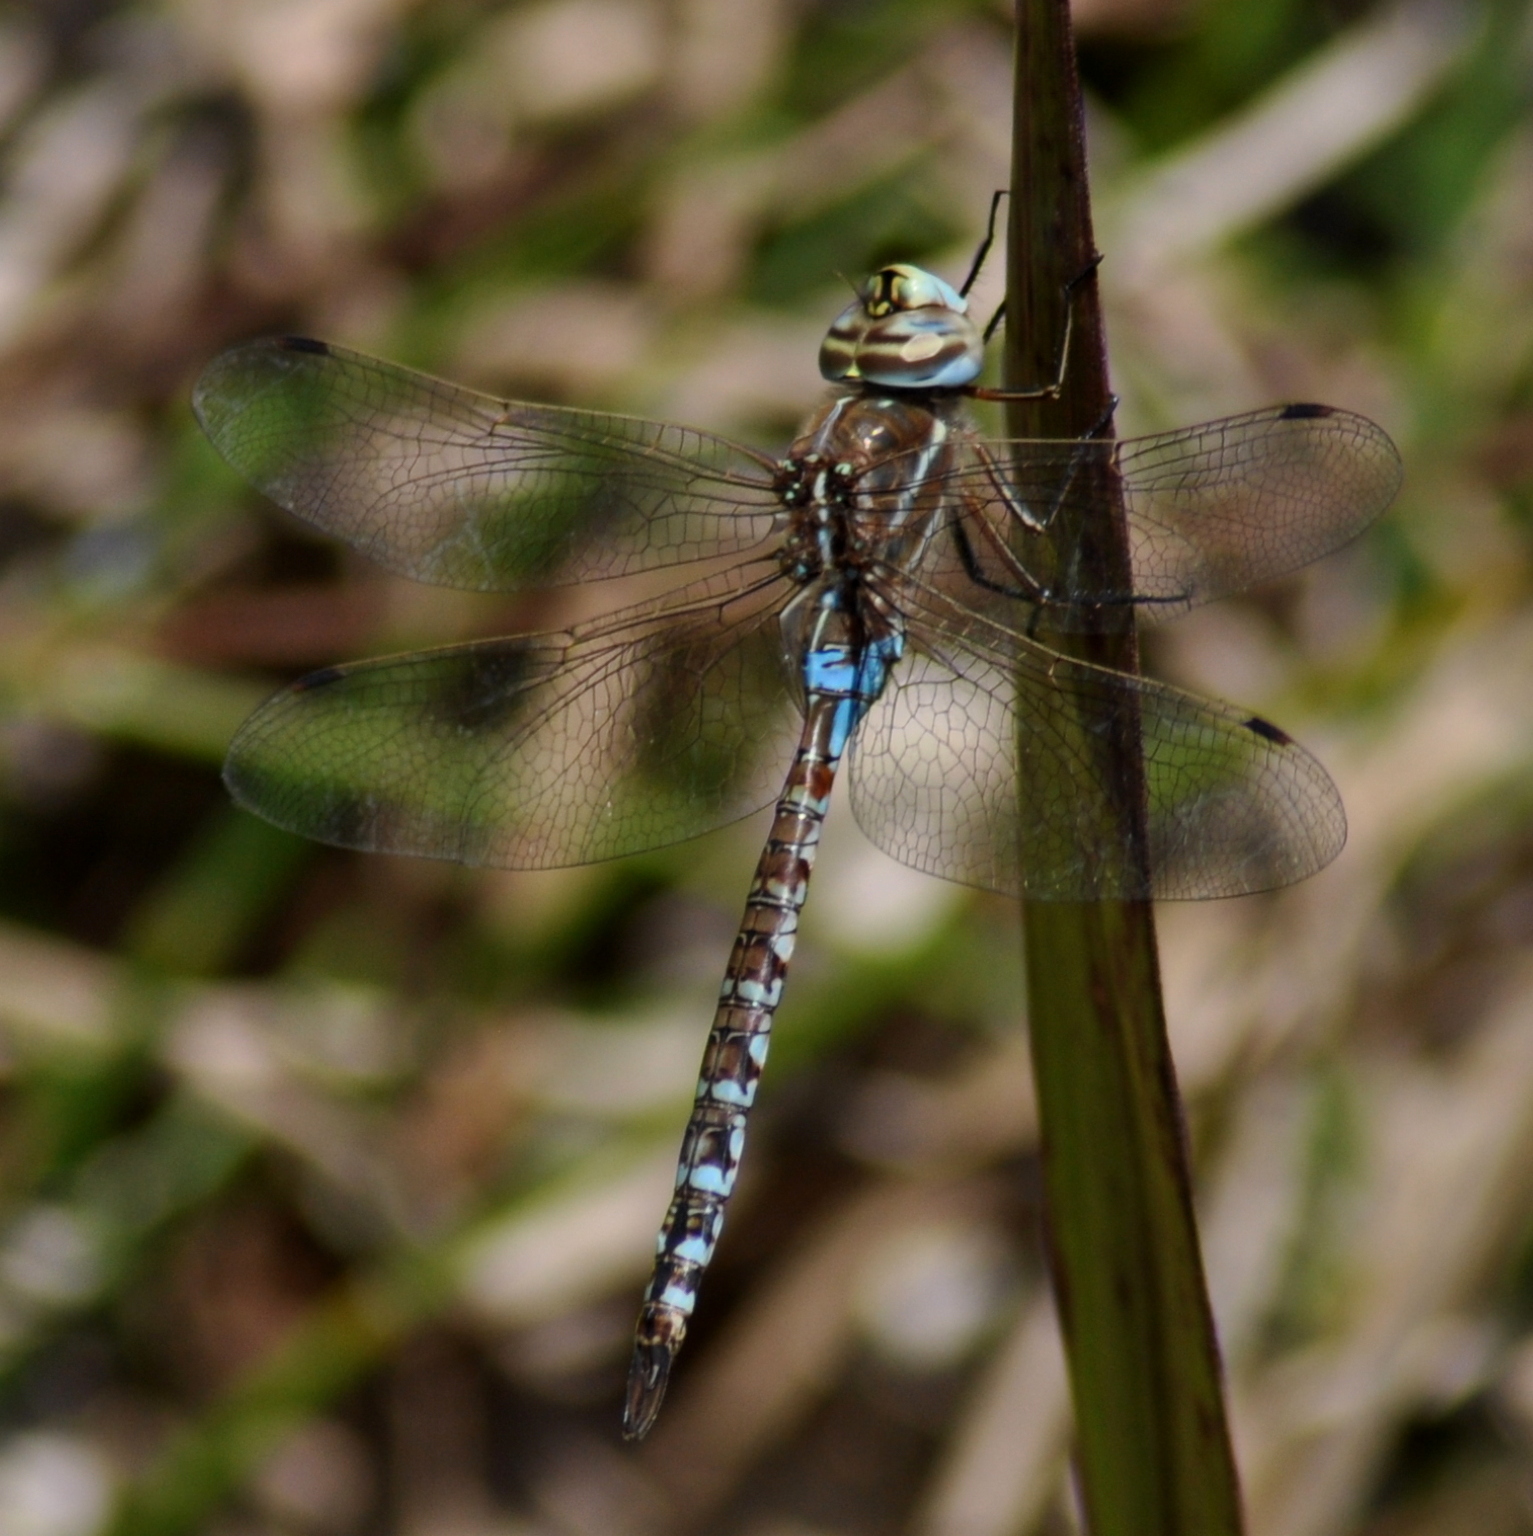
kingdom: Animalia
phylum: Arthropoda
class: Insecta
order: Odonata
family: Aeshnidae
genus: Rhionaeschna
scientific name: Rhionaeschna bonariensis
